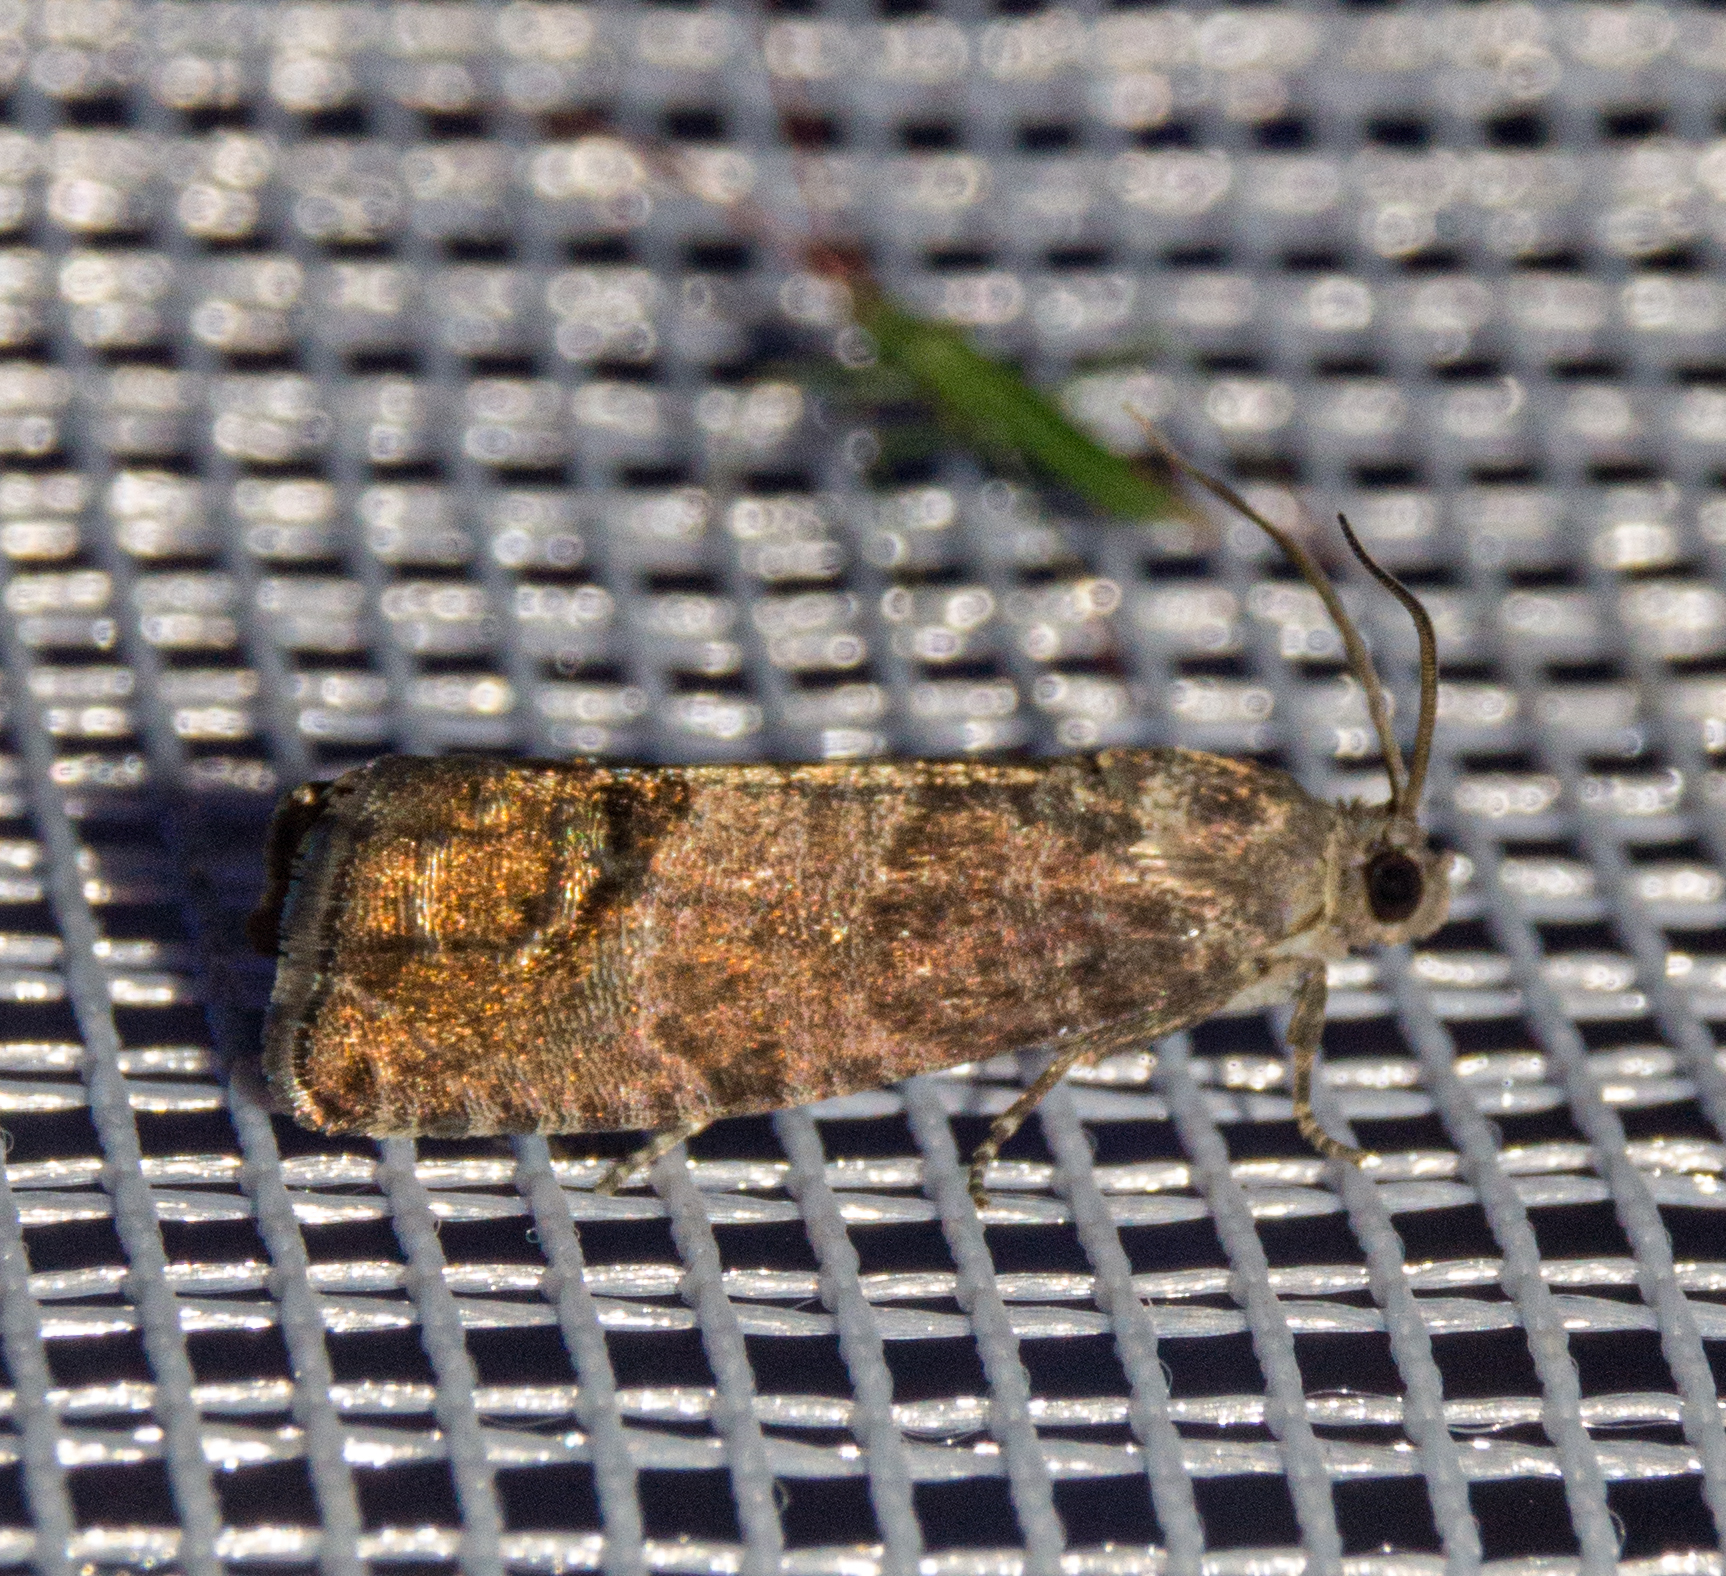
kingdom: Animalia
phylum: Arthropoda
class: Insecta
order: Lepidoptera
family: Tortricidae
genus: Cydia
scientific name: Cydia pomonella
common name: Codling moth
